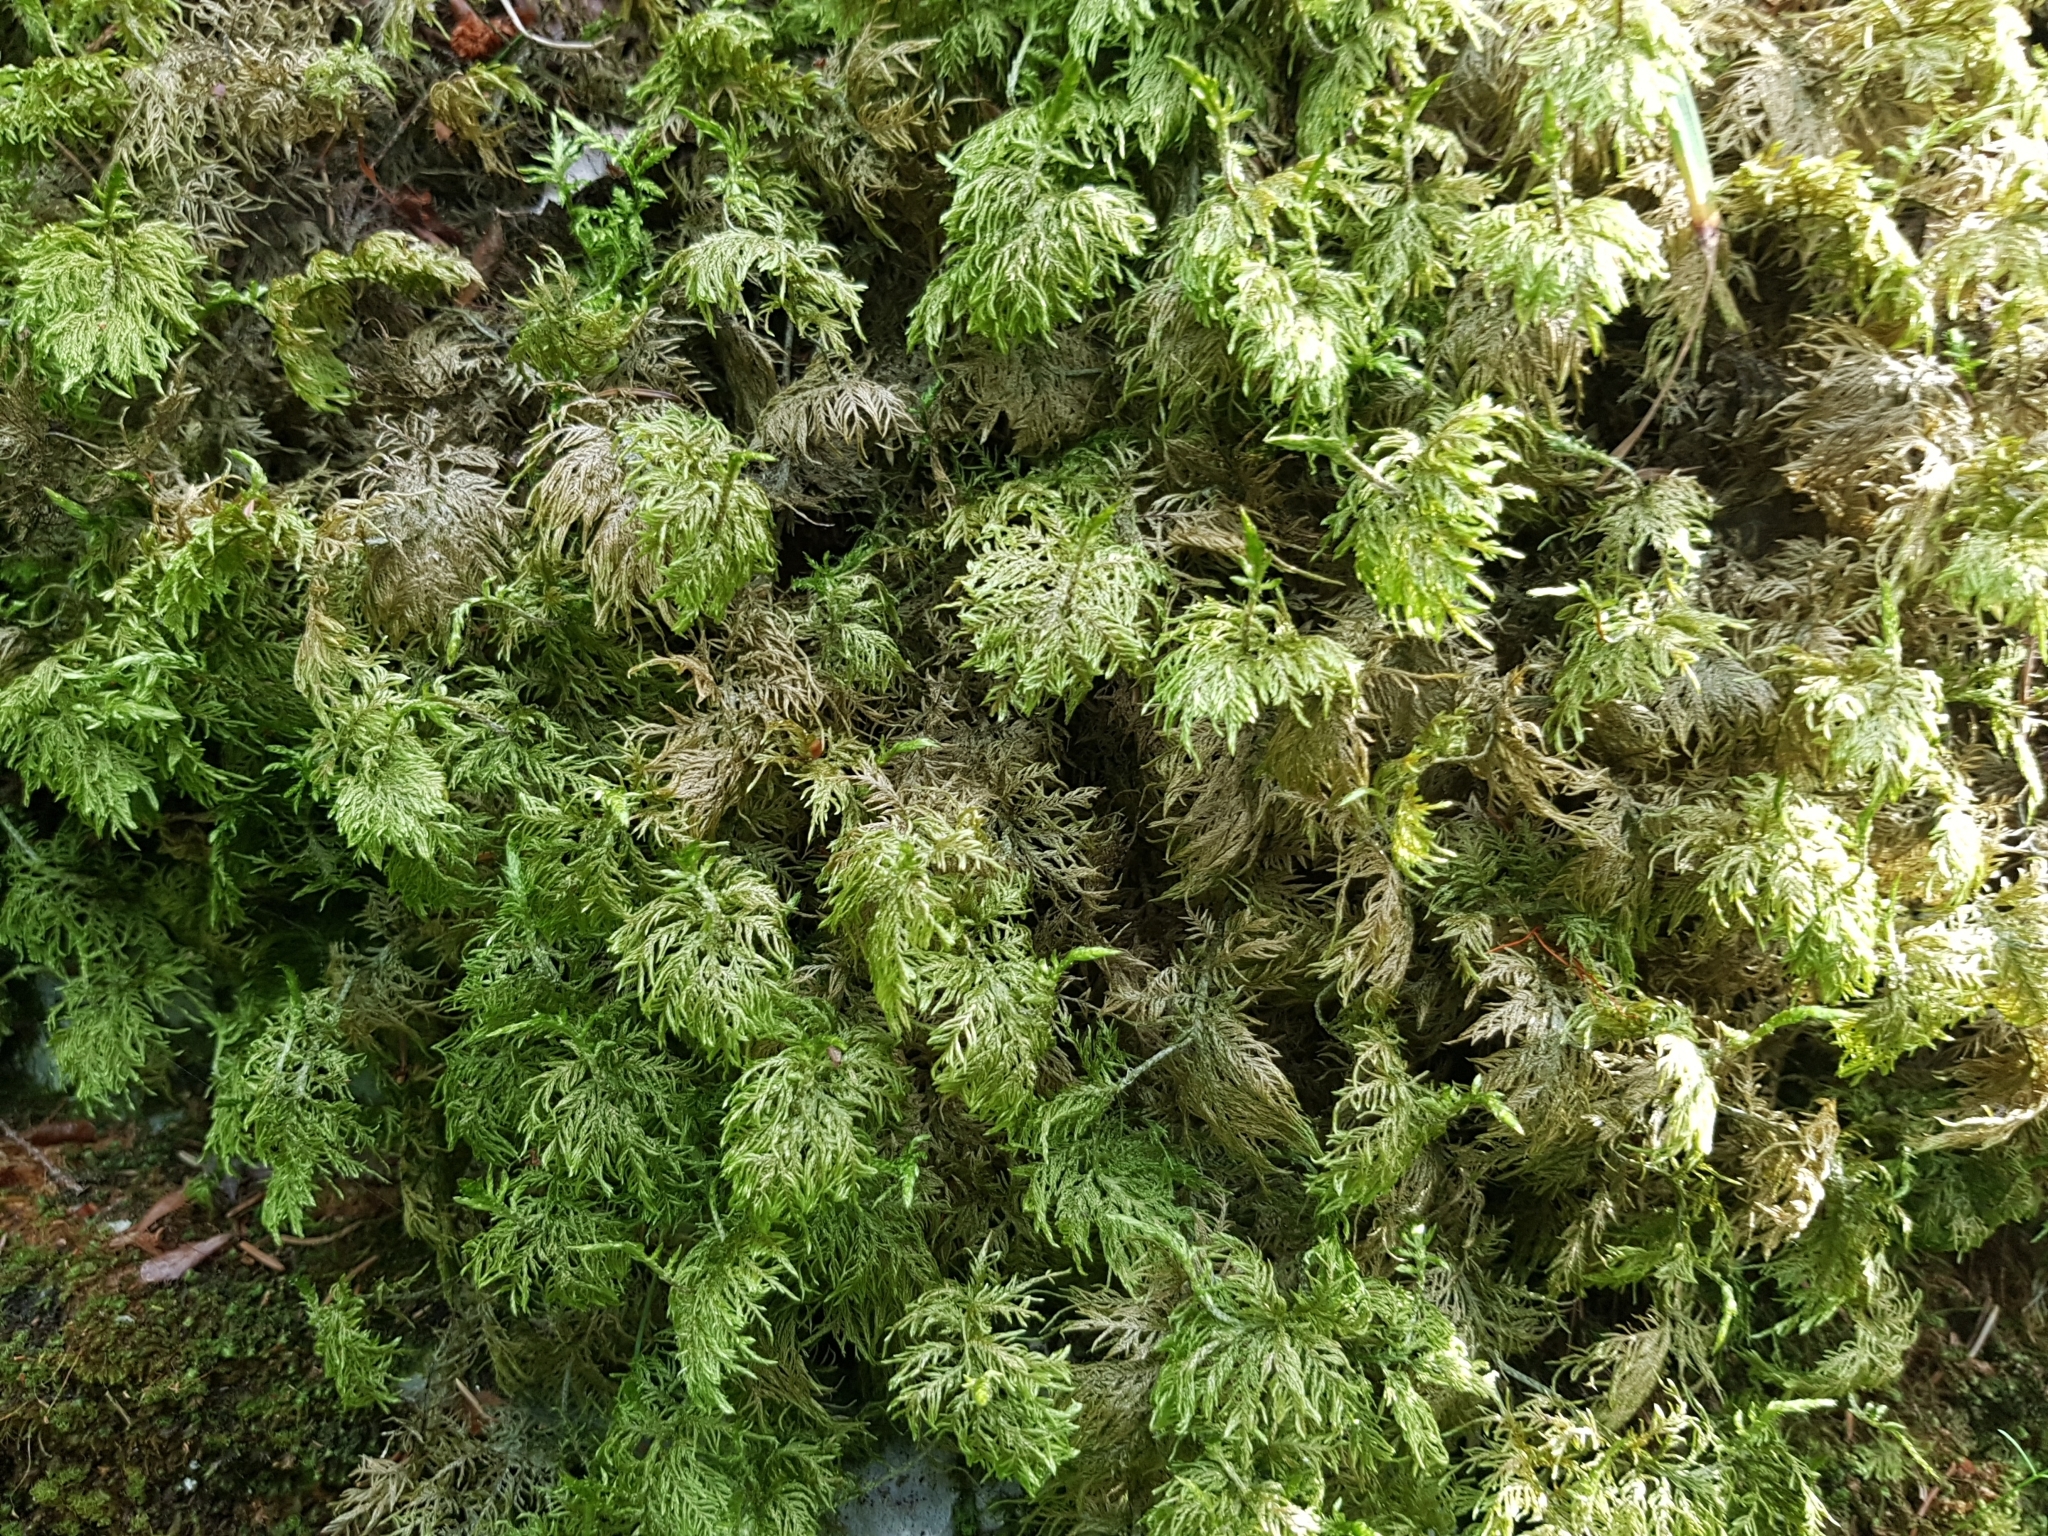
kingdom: Plantae
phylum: Bryophyta
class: Bryopsida
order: Hypnales
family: Hylocomiaceae
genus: Hylocomium
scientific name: Hylocomium splendens
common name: Stairstep moss
